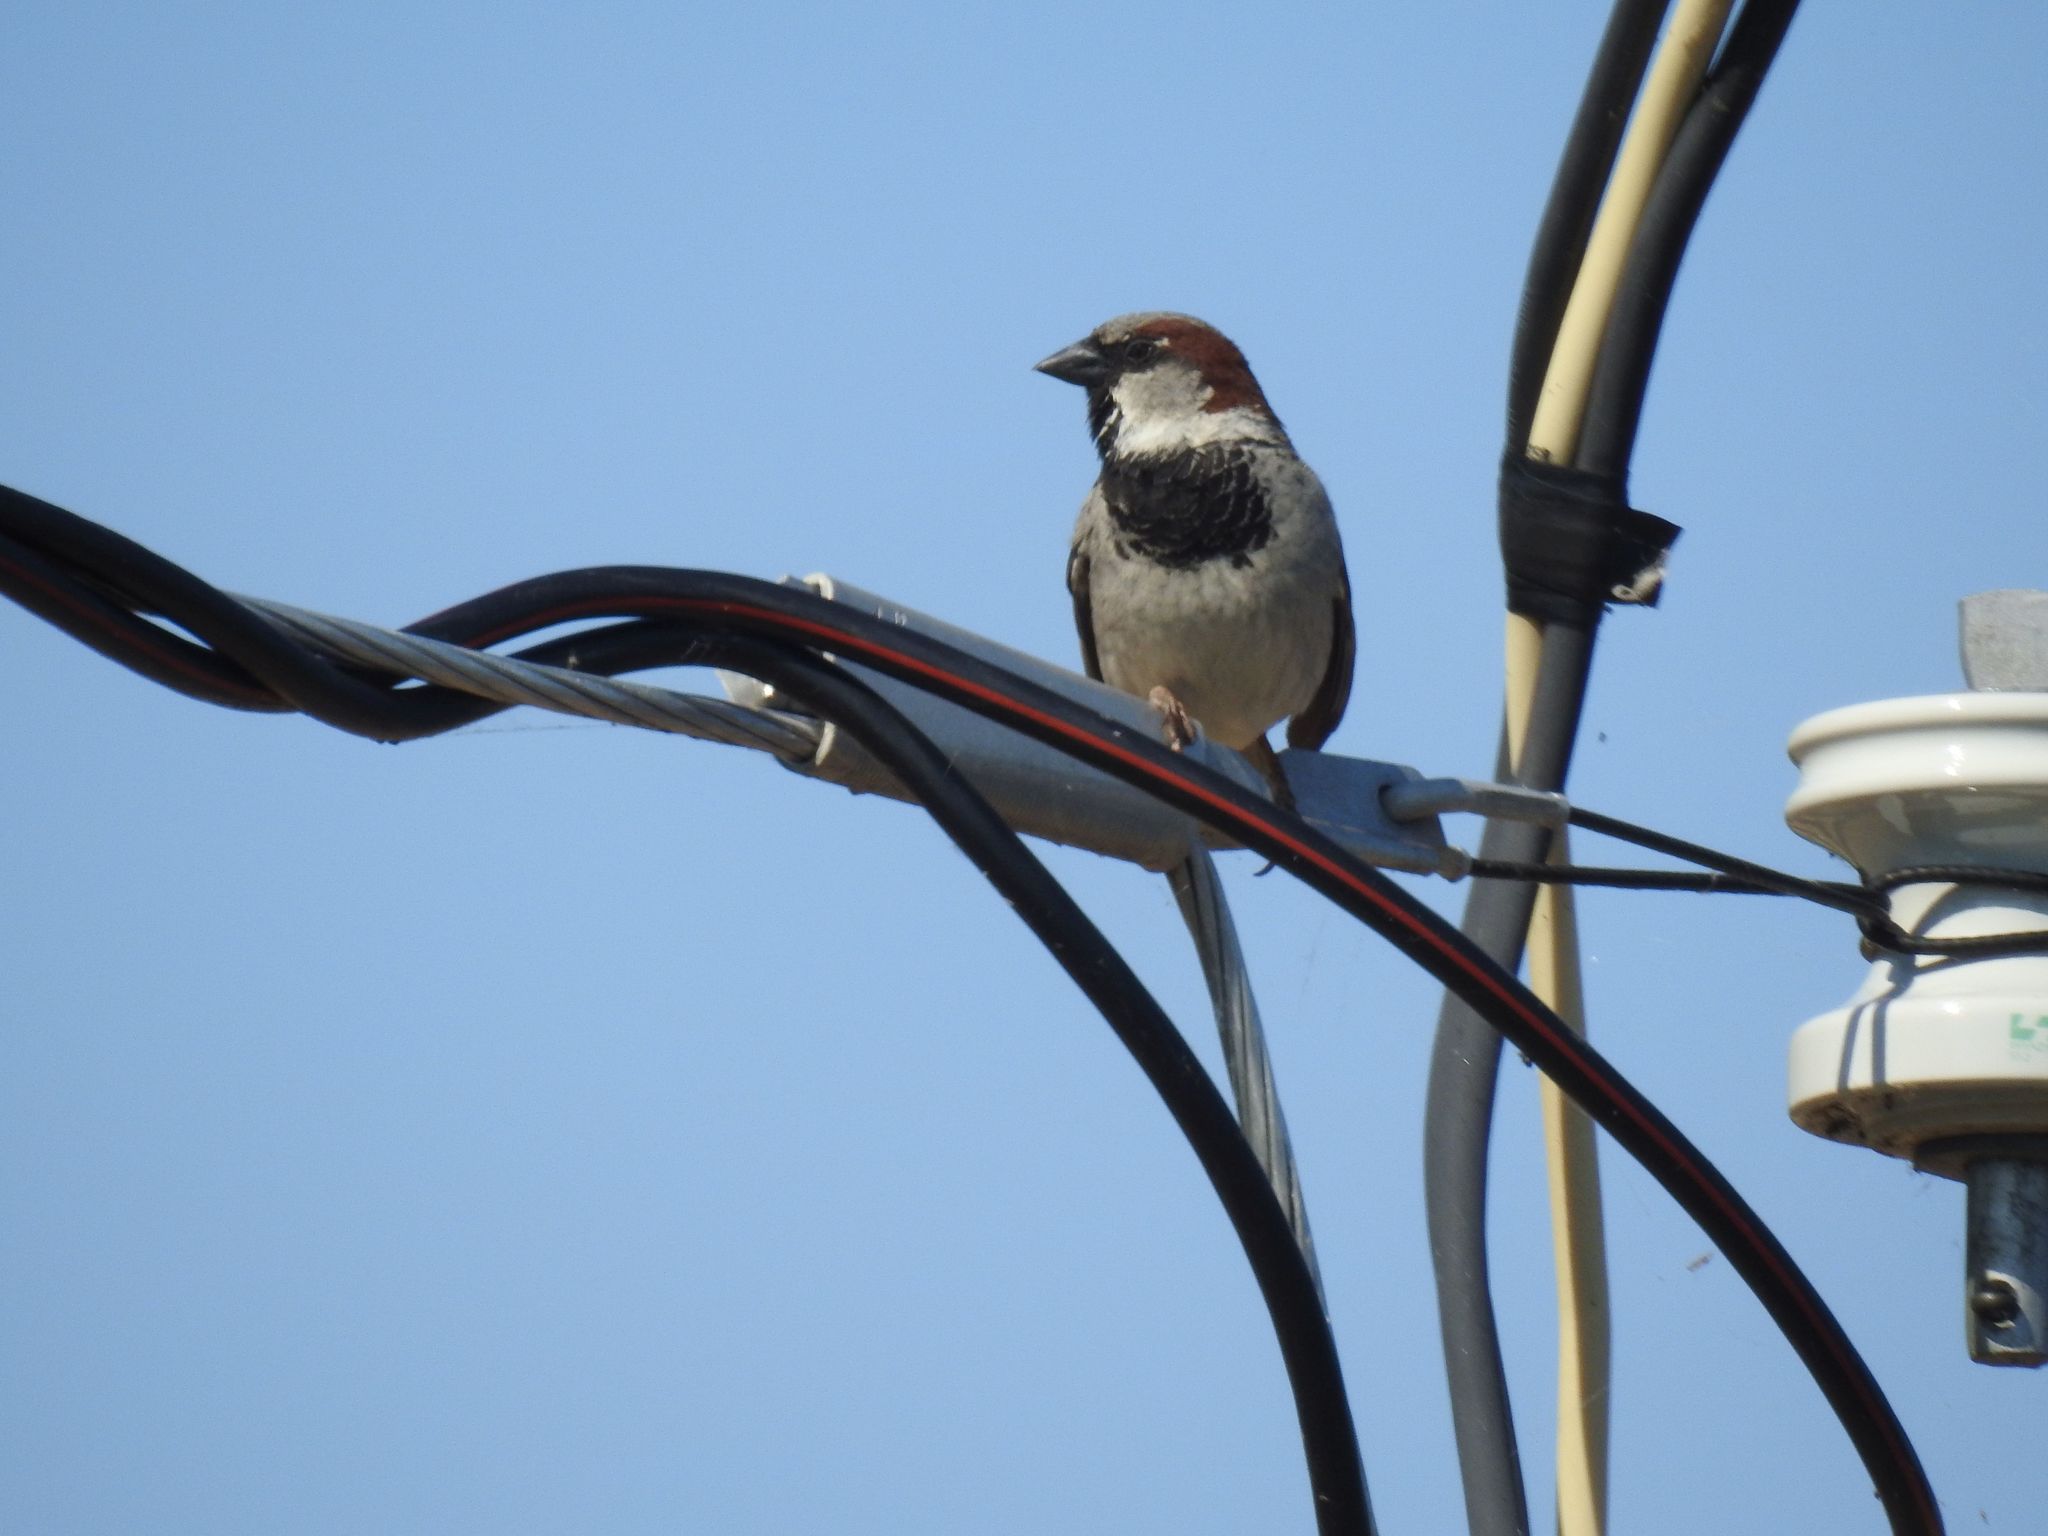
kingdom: Animalia
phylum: Chordata
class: Aves
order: Passeriformes
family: Passeridae
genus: Passer
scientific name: Passer domesticus
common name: House sparrow
